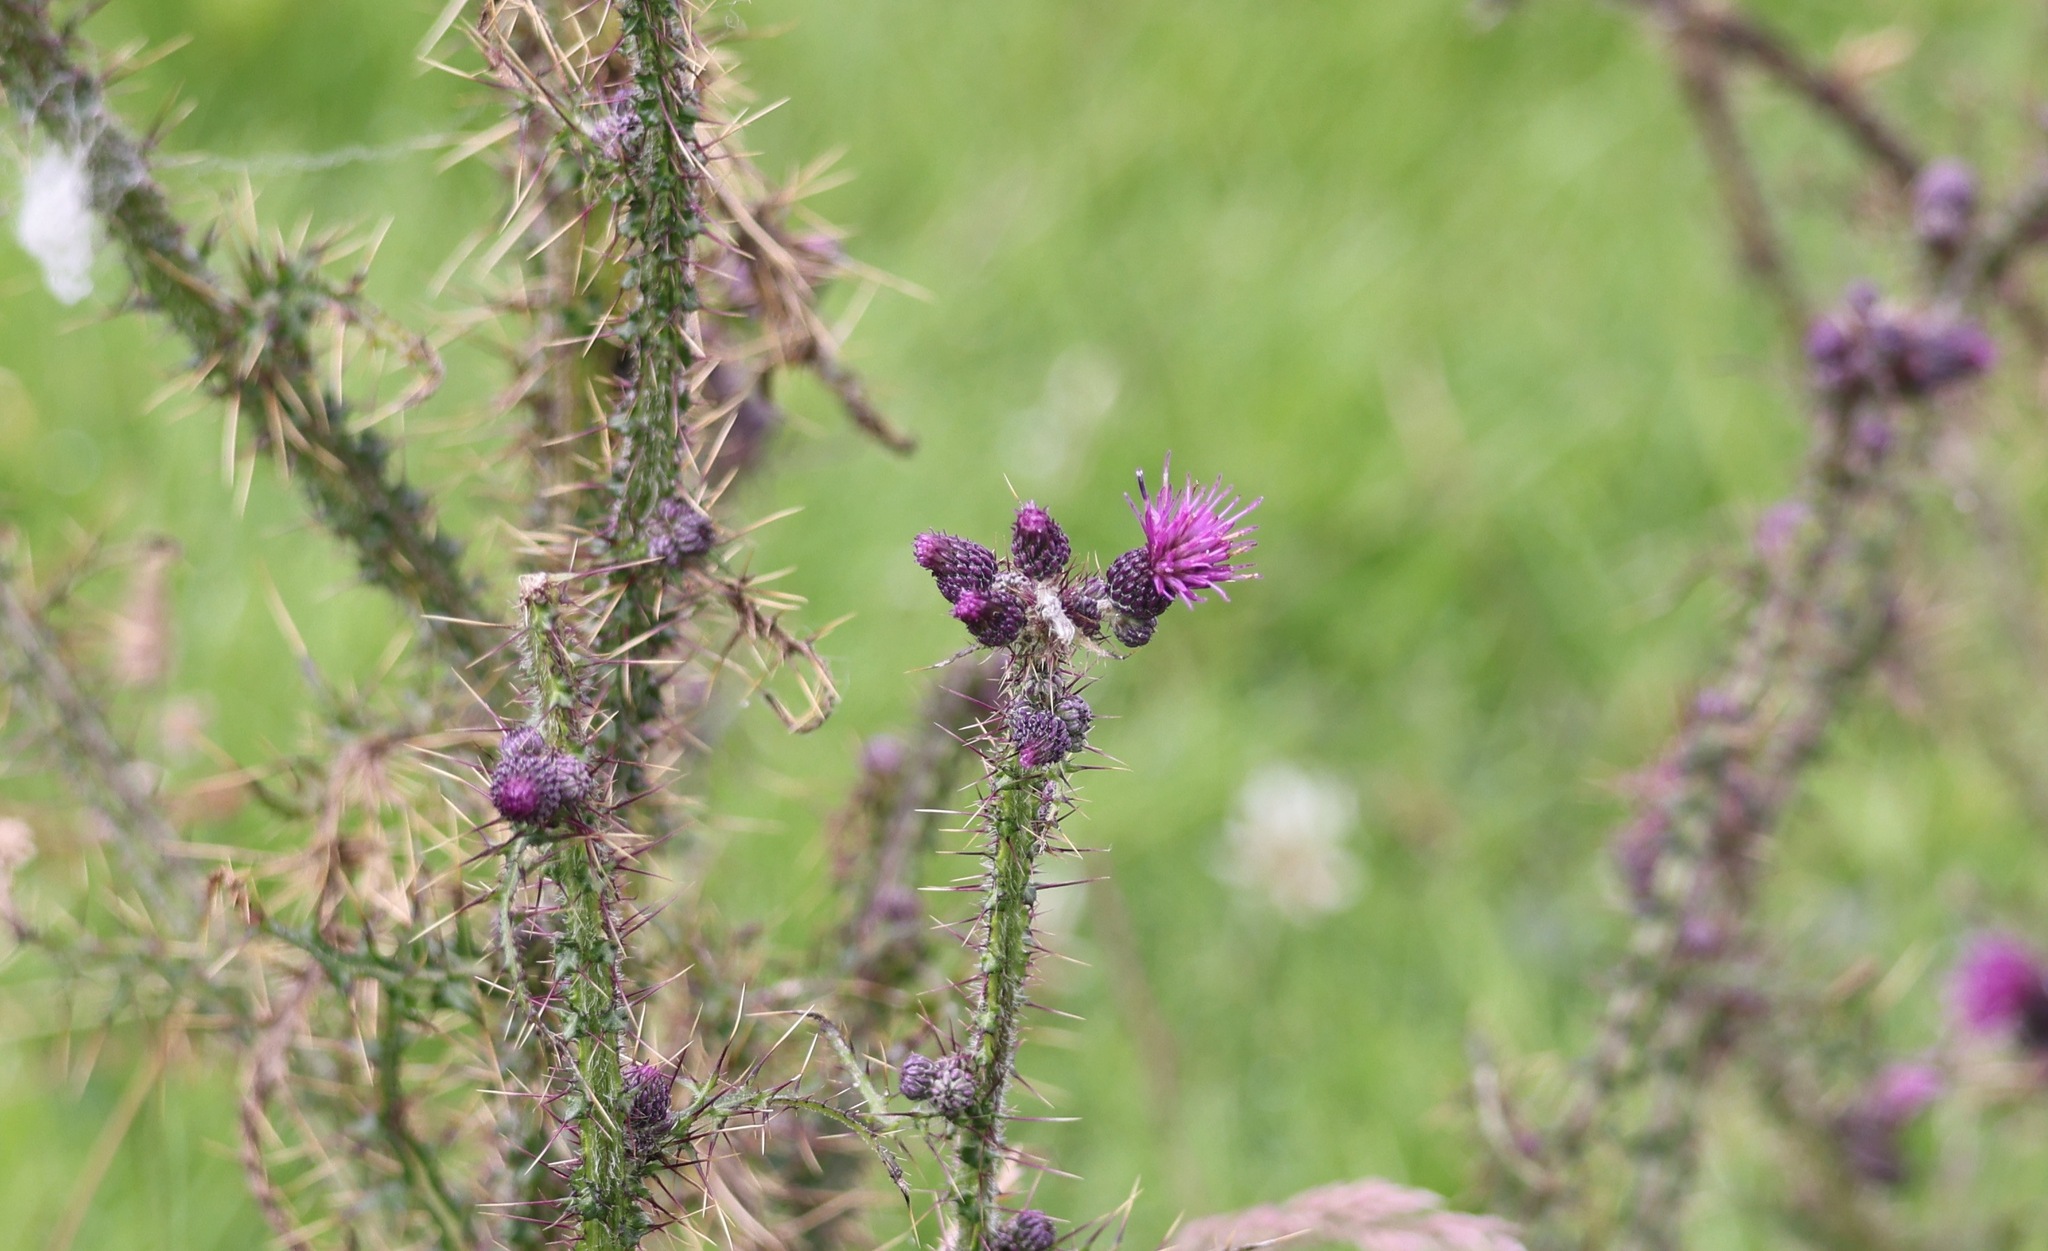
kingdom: Plantae
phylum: Tracheophyta
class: Magnoliopsida
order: Asterales
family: Asteraceae
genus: Cirsium
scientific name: Cirsium palustre
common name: Marsh thistle
